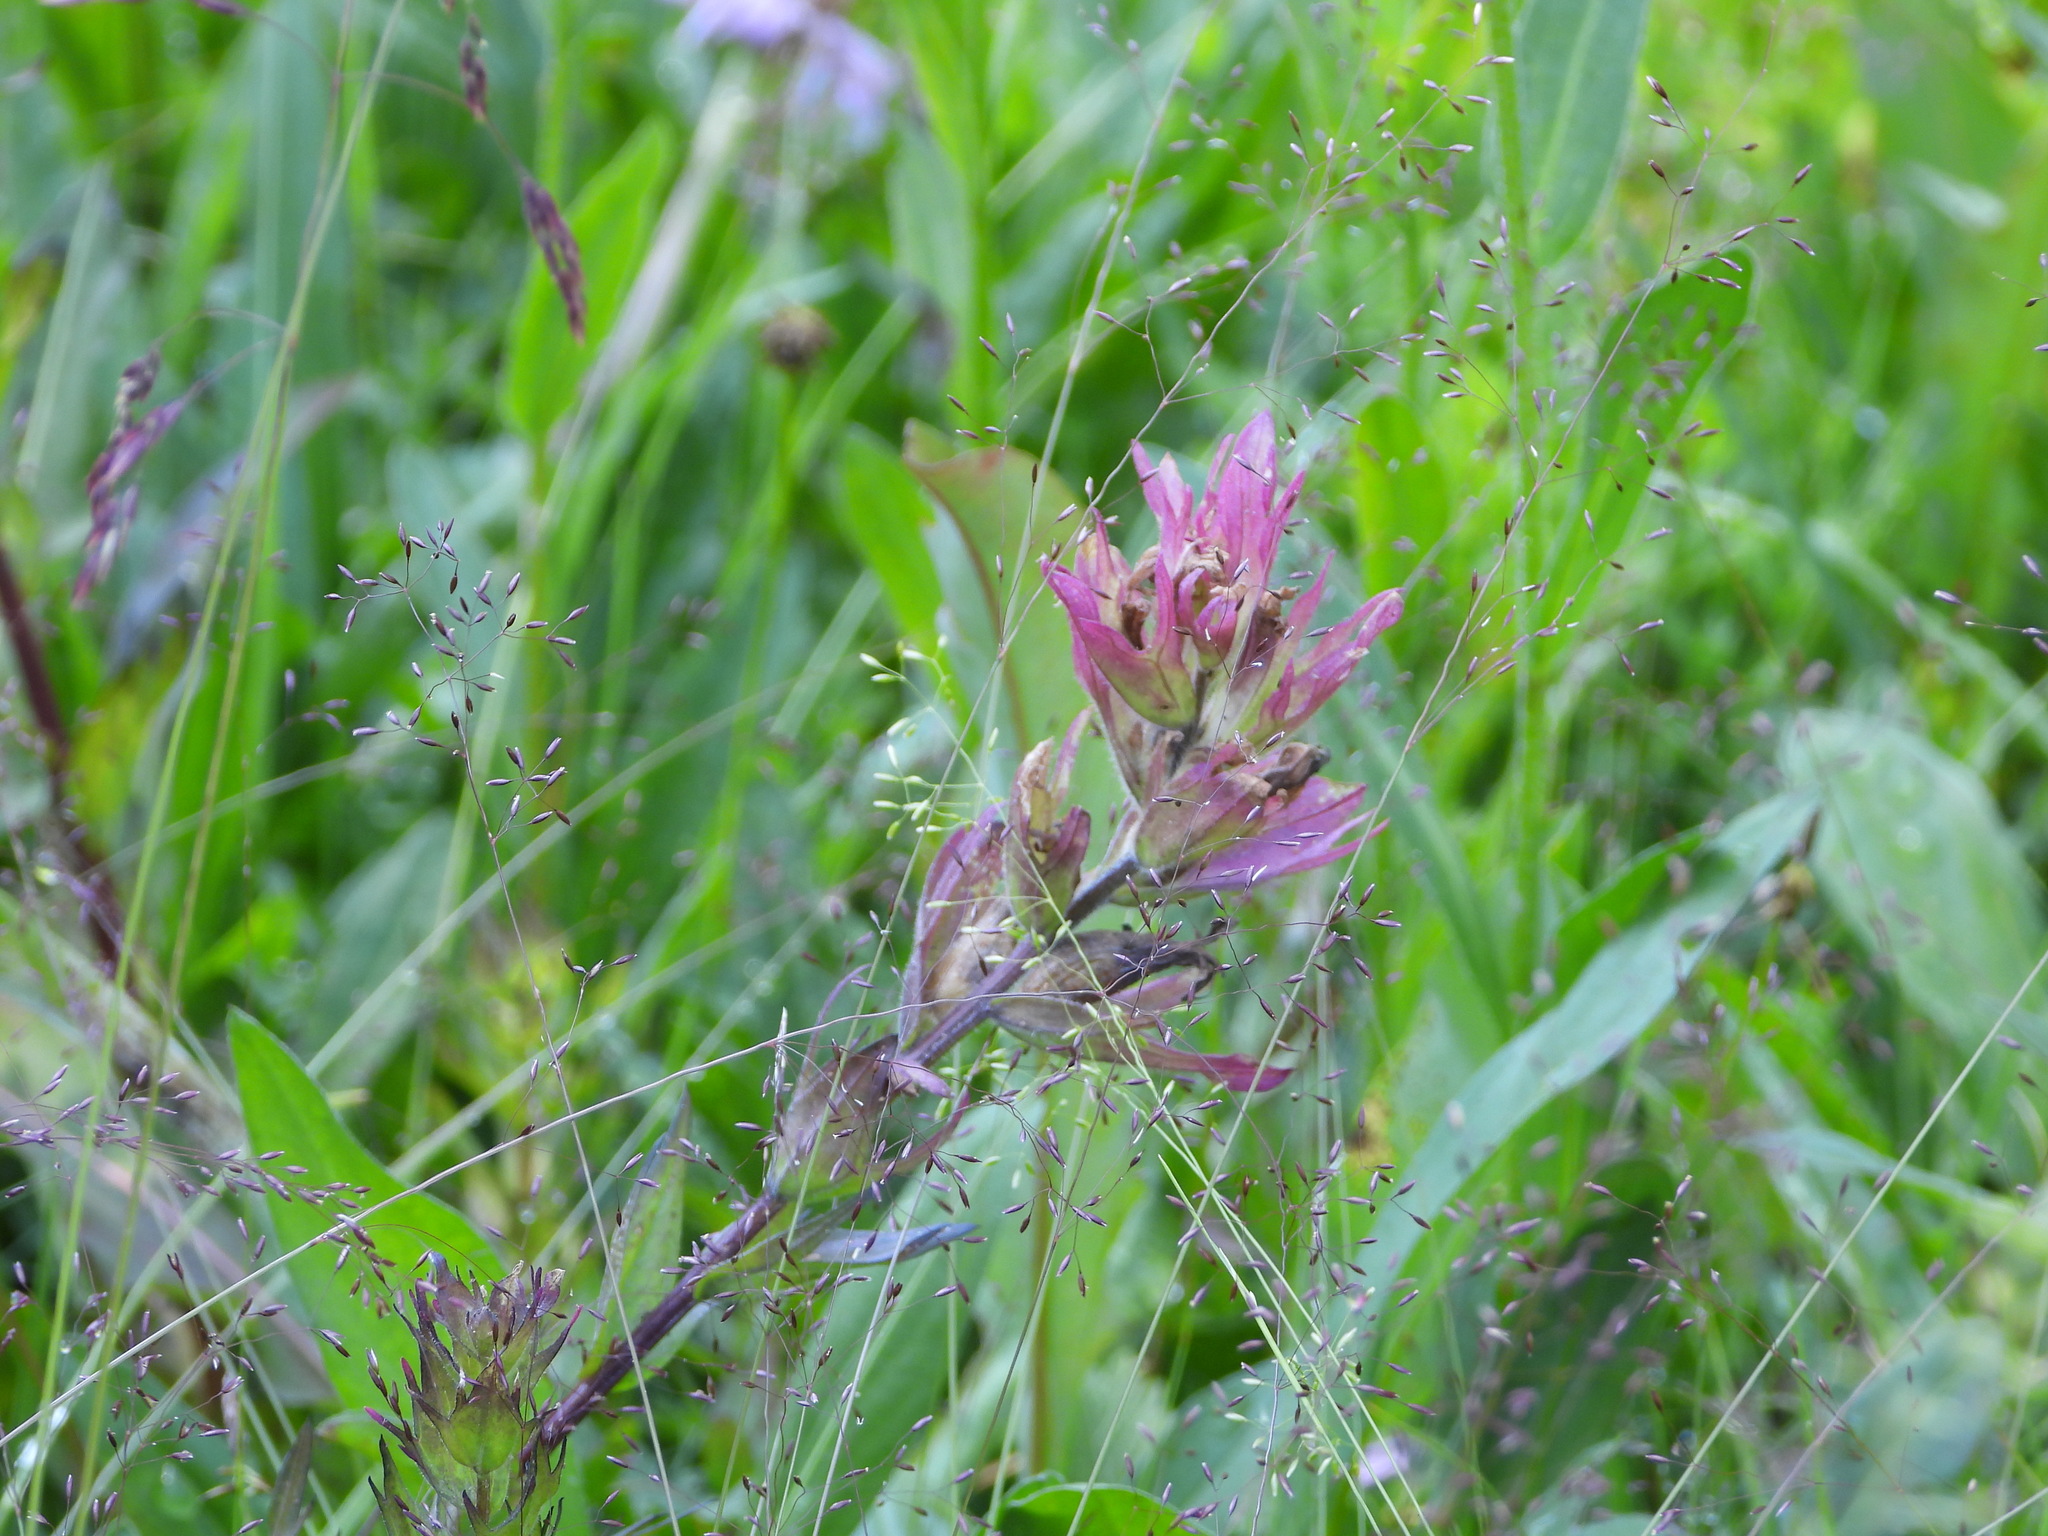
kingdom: Plantae
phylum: Tracheophyta
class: Magnoliopsida
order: Lamiales
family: Orobanchaceae
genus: Castilleja
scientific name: Castilleja parviflora
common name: Mountain paintbrush
